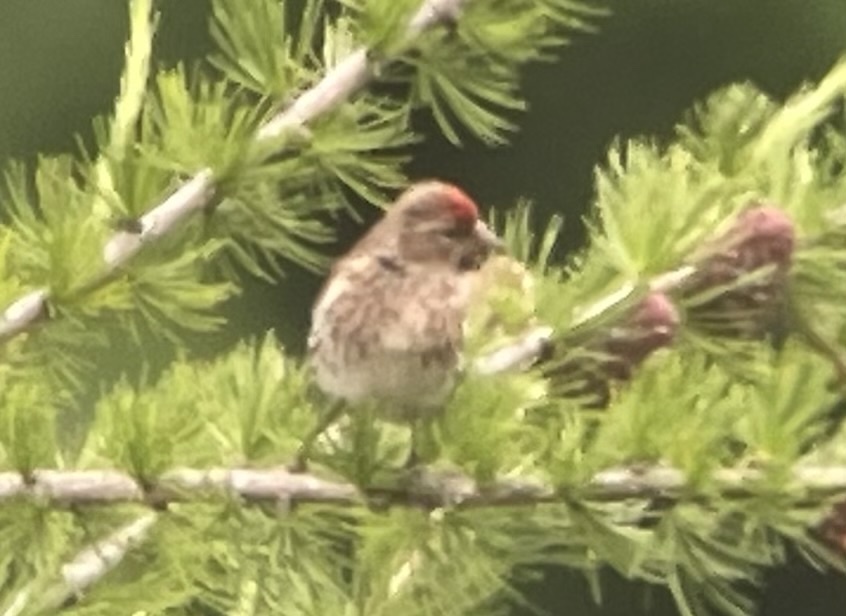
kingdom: Animalia
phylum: Chordata
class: Aves
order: Passeriformes
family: Fringillidae
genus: Acanthis
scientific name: Acanthis flammea
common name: Common redpoll
